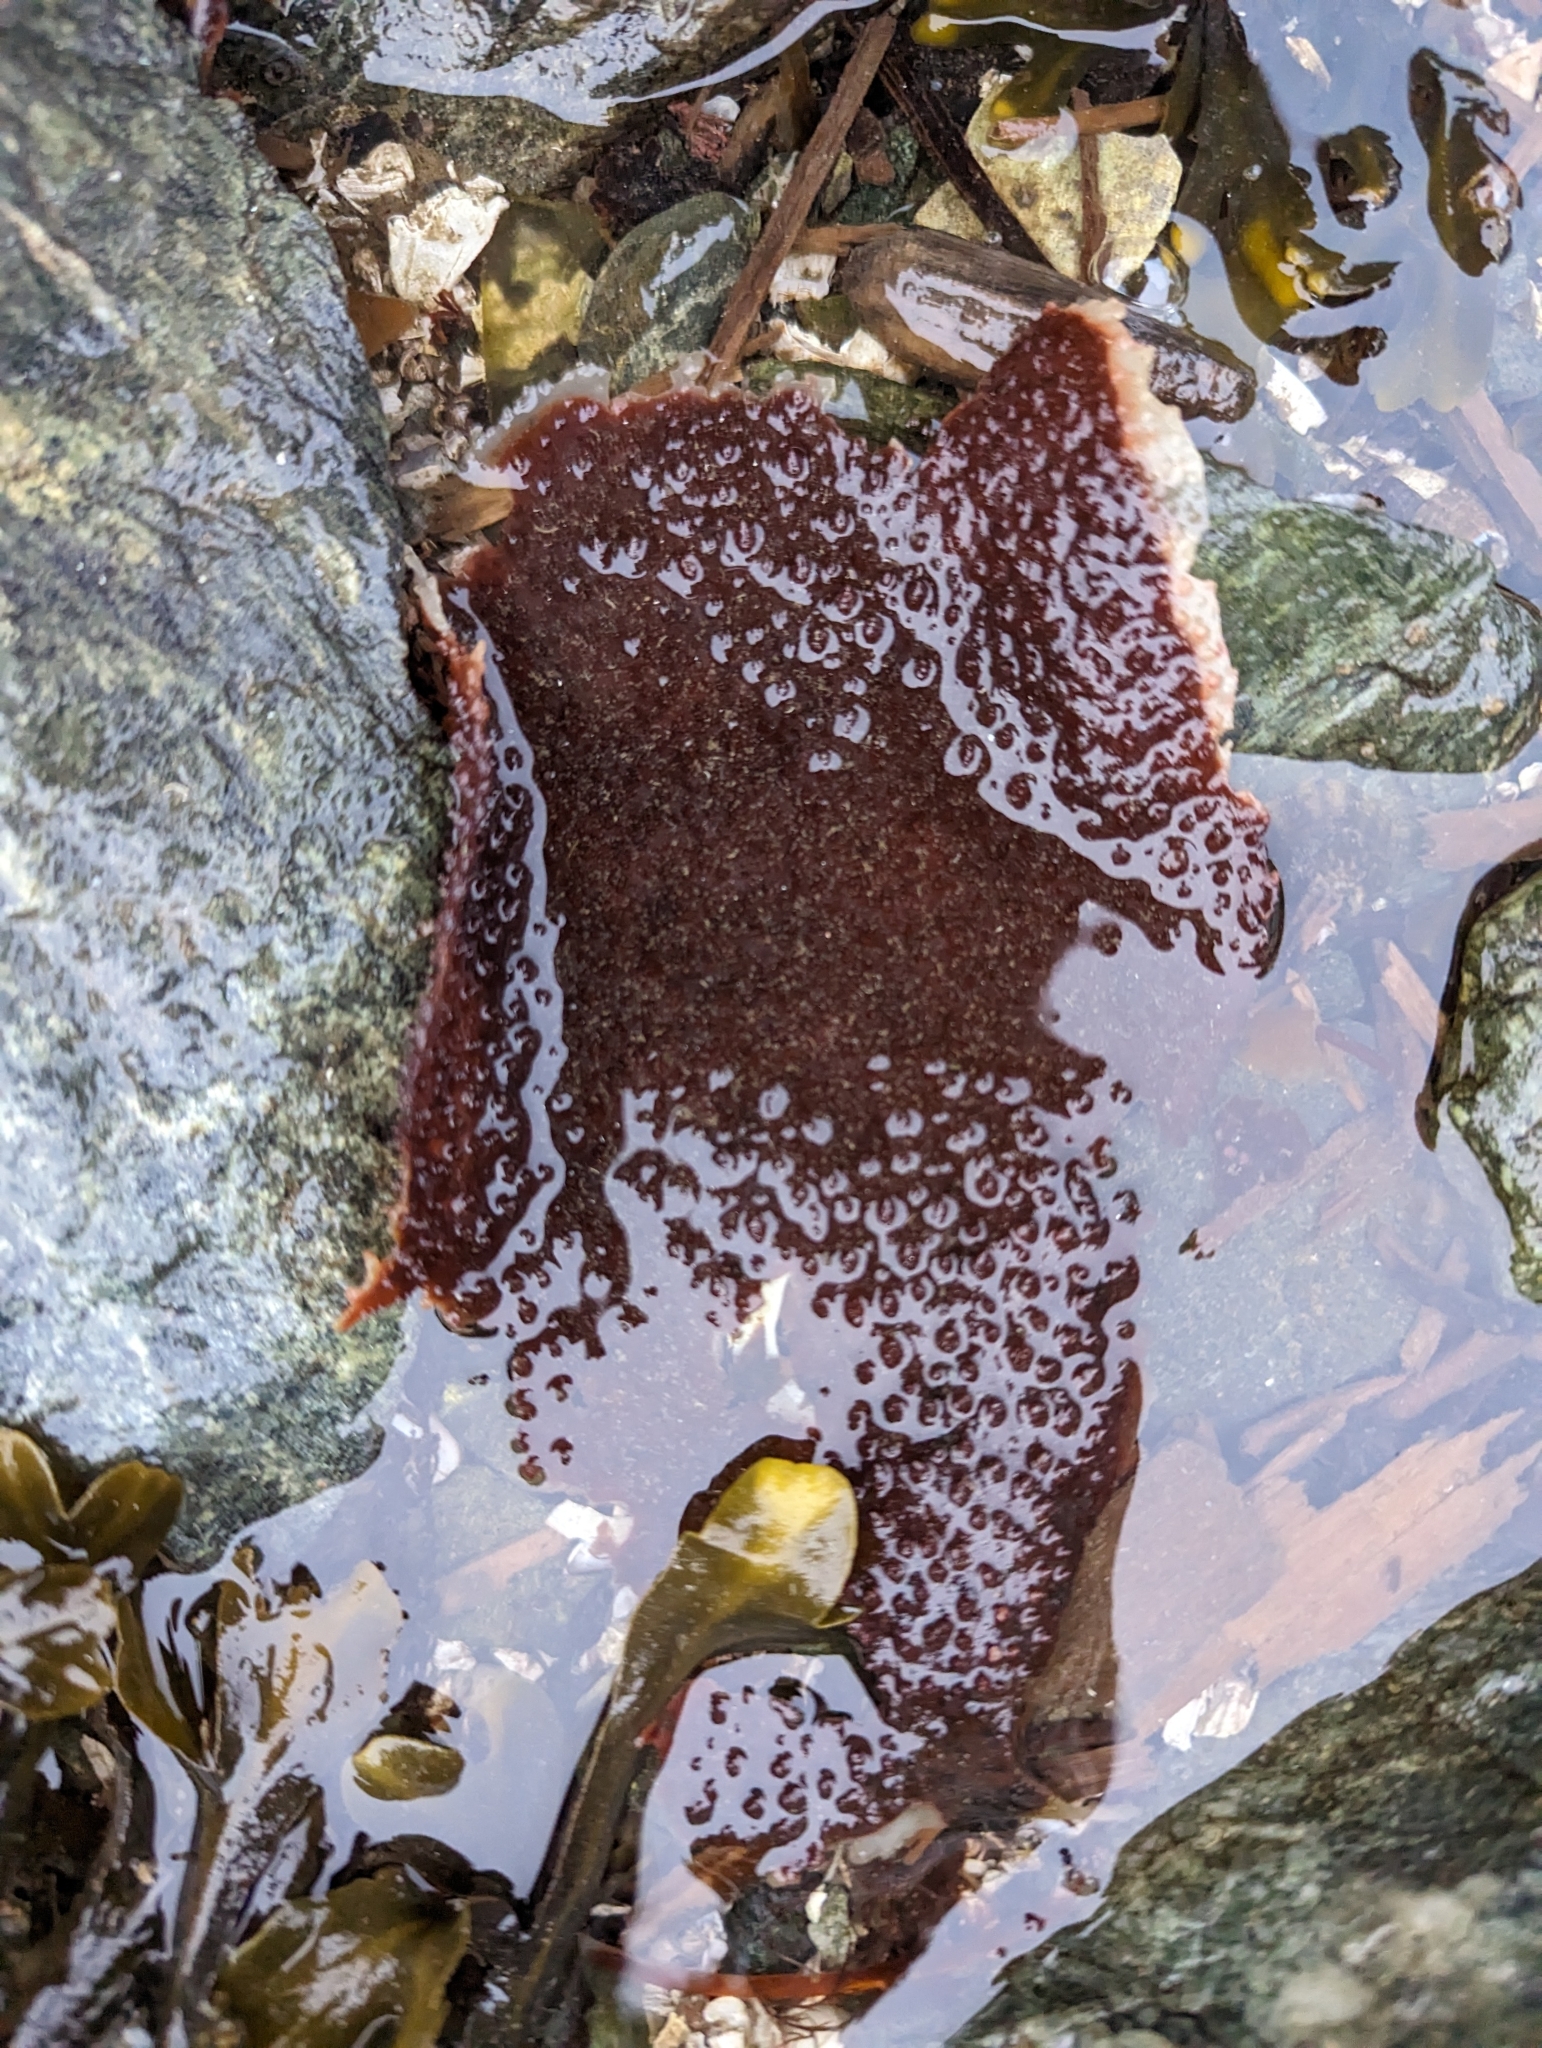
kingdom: Plantae
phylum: Rhodophyta
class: Florideophyceae
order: Gigartinales
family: Gigartinaceae
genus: Chondracanthus
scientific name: Chondracanthus exasperatus
